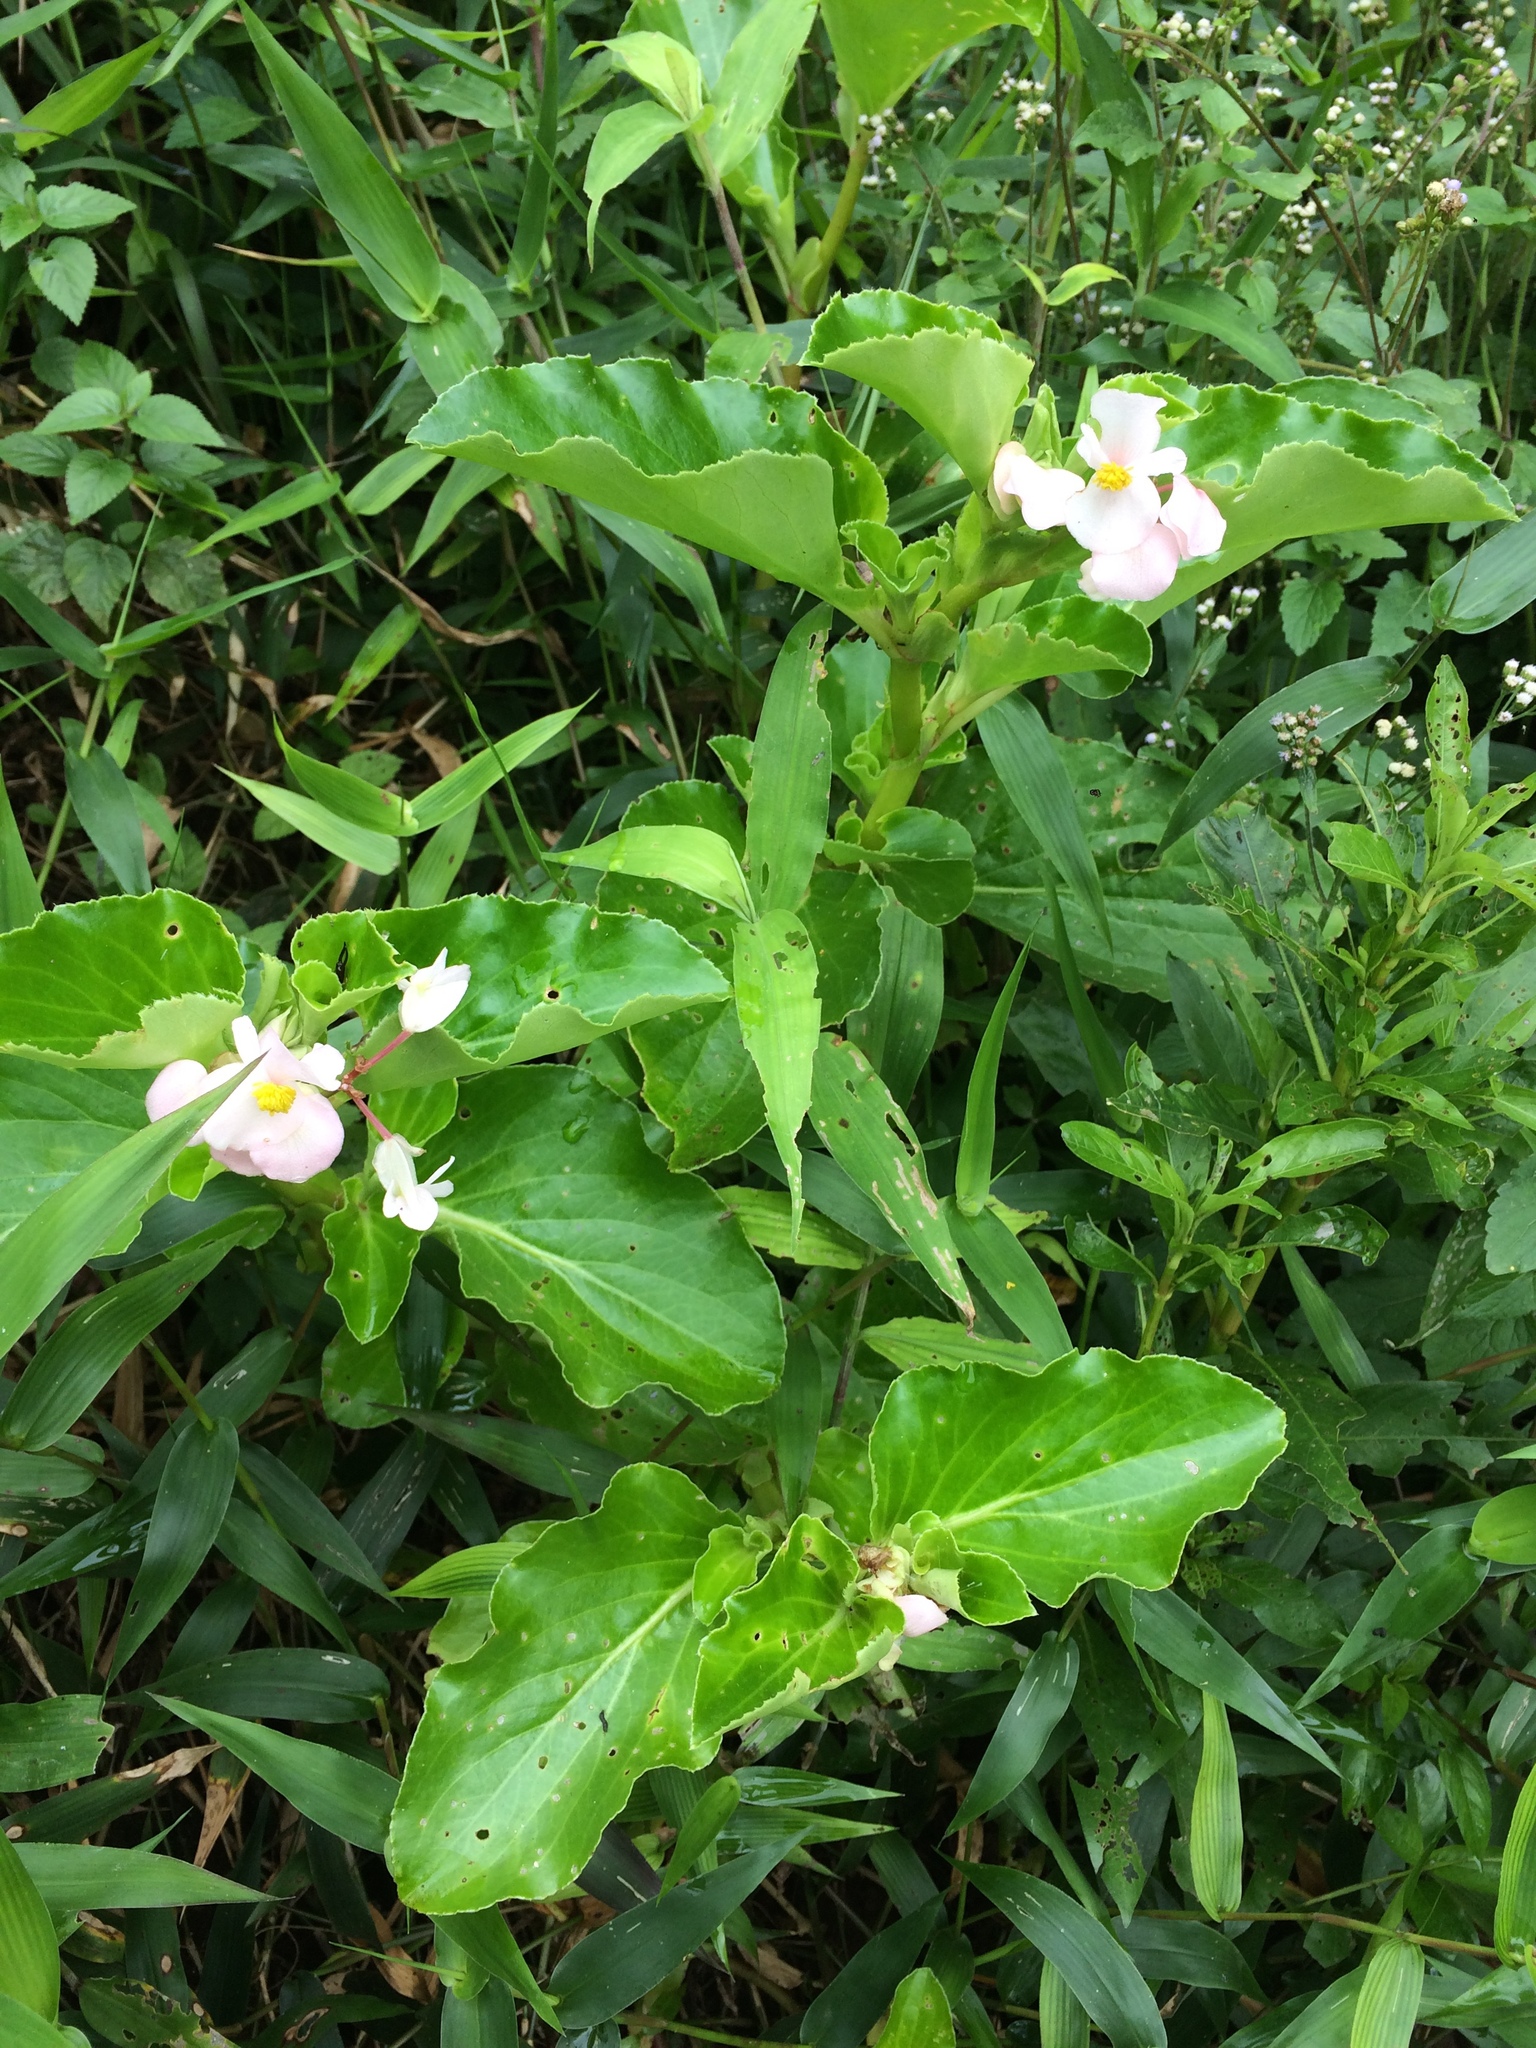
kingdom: Plantae
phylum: Tracheophyta
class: Magnoliopsida
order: Cucurbitales
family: Begoniaceae
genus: Begonia
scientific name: Begonia cucullata
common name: Clubbed begonia
